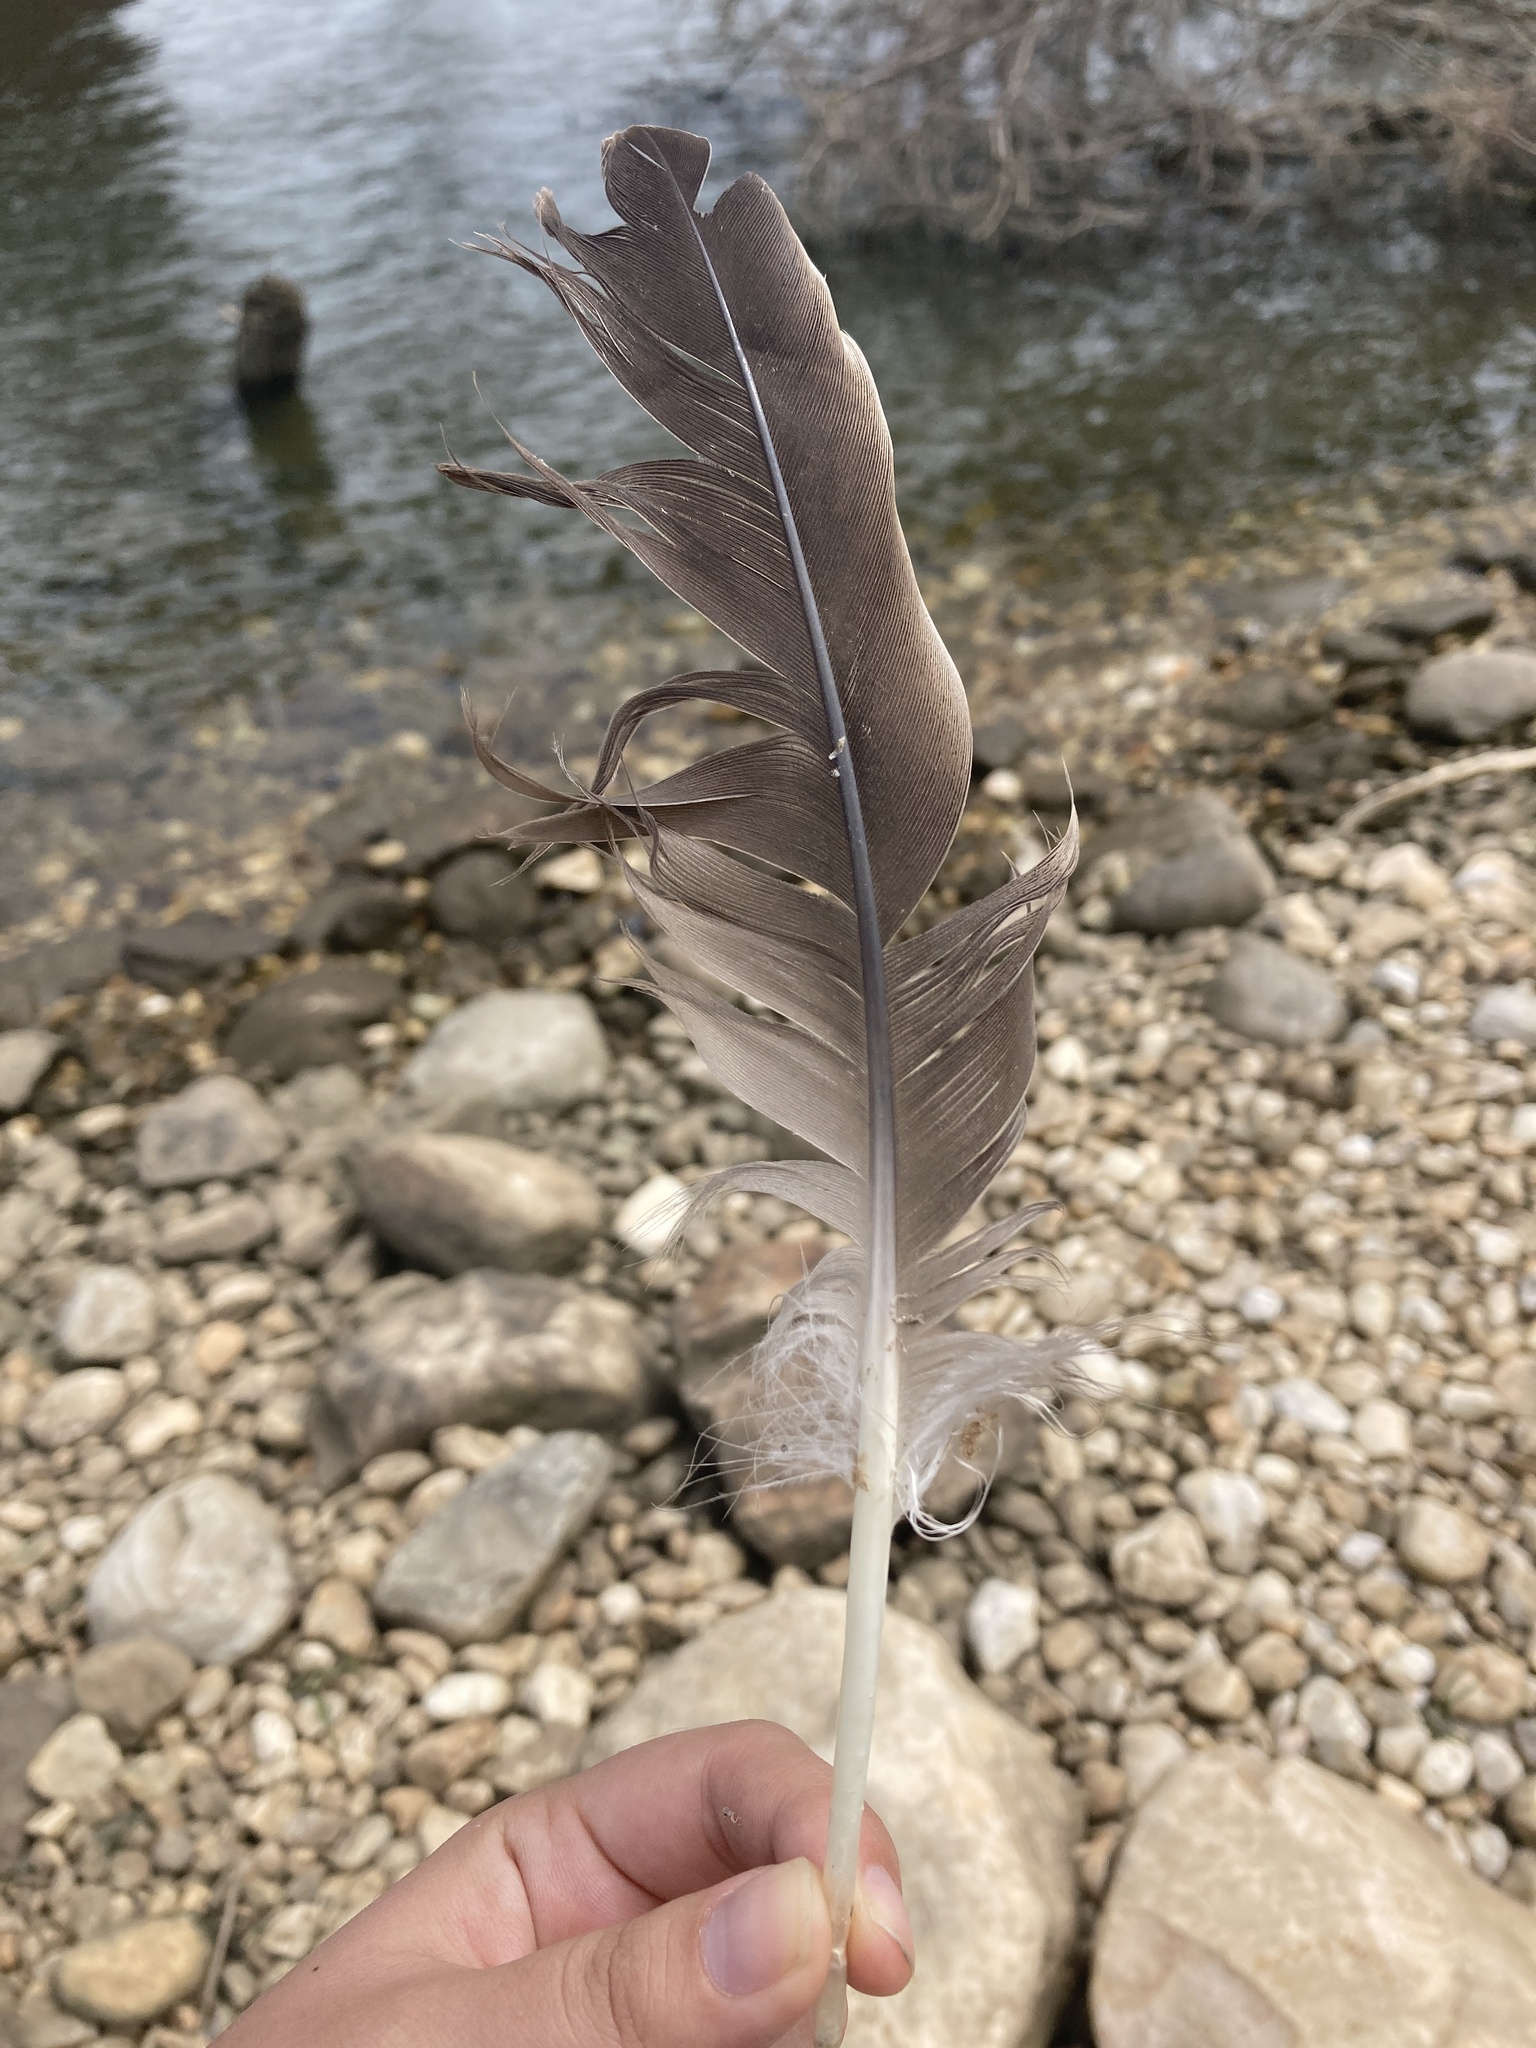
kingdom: Animalia
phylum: Chordata
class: Aves
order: Anseriformes
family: Anatidae
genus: Branta
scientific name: Branta canadensis
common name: Canada goose
